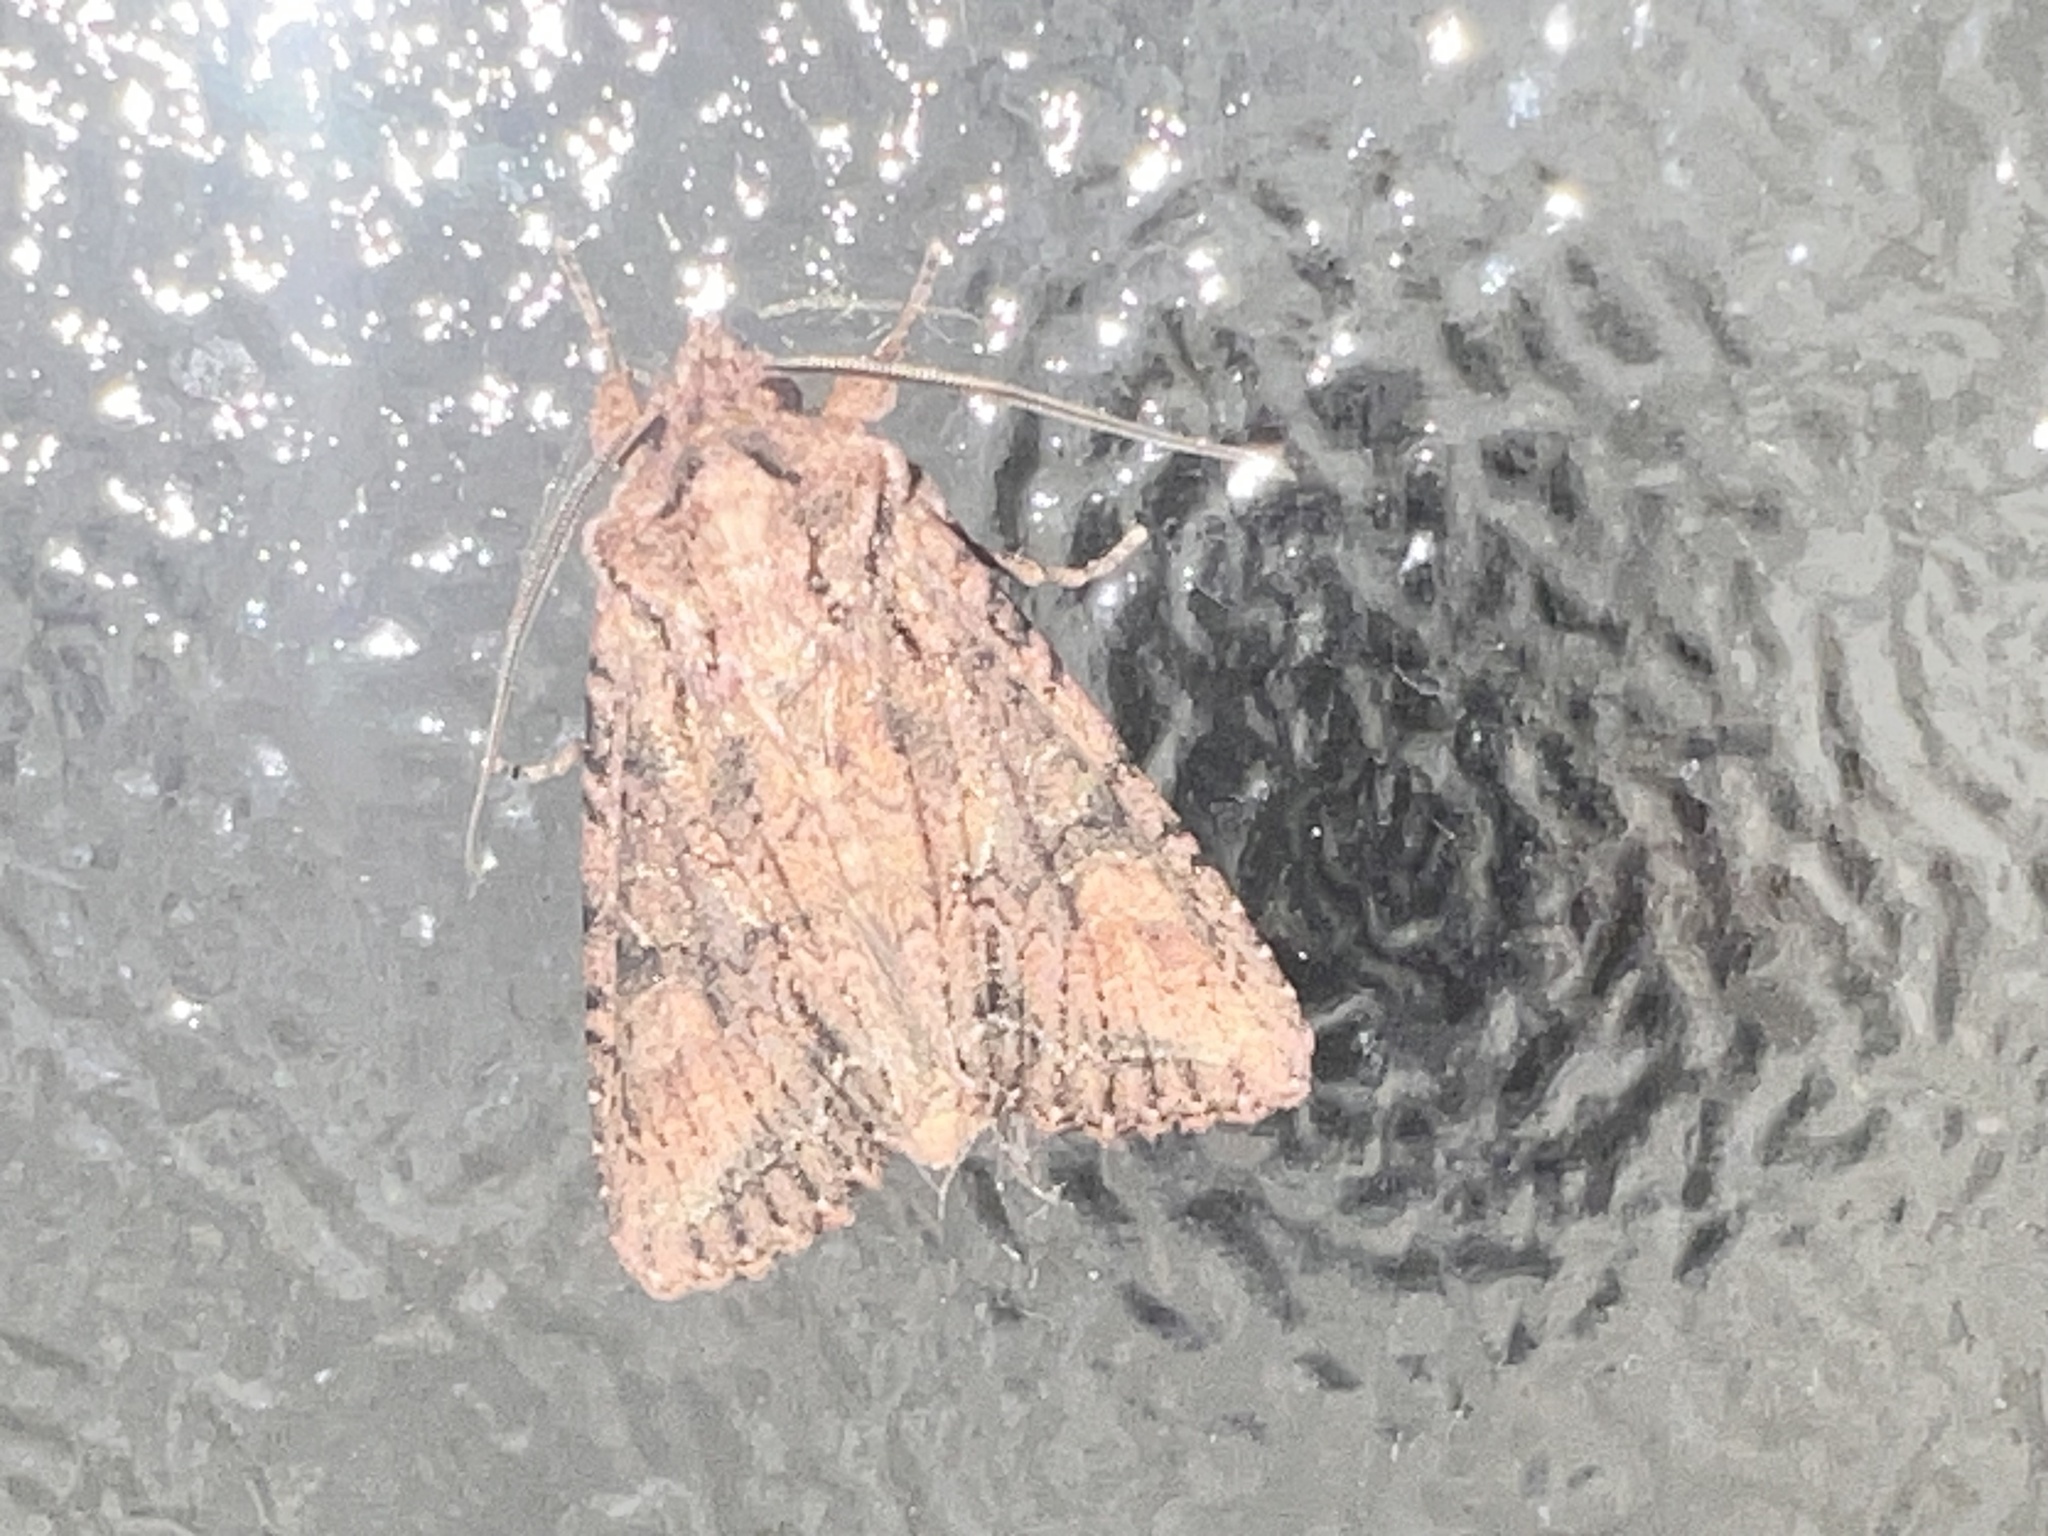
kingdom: Animalia
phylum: Arthropoda
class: Insecta
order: Lepidoptera
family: Noctuidae
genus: Ichneutica
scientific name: Ichneutica mutans
